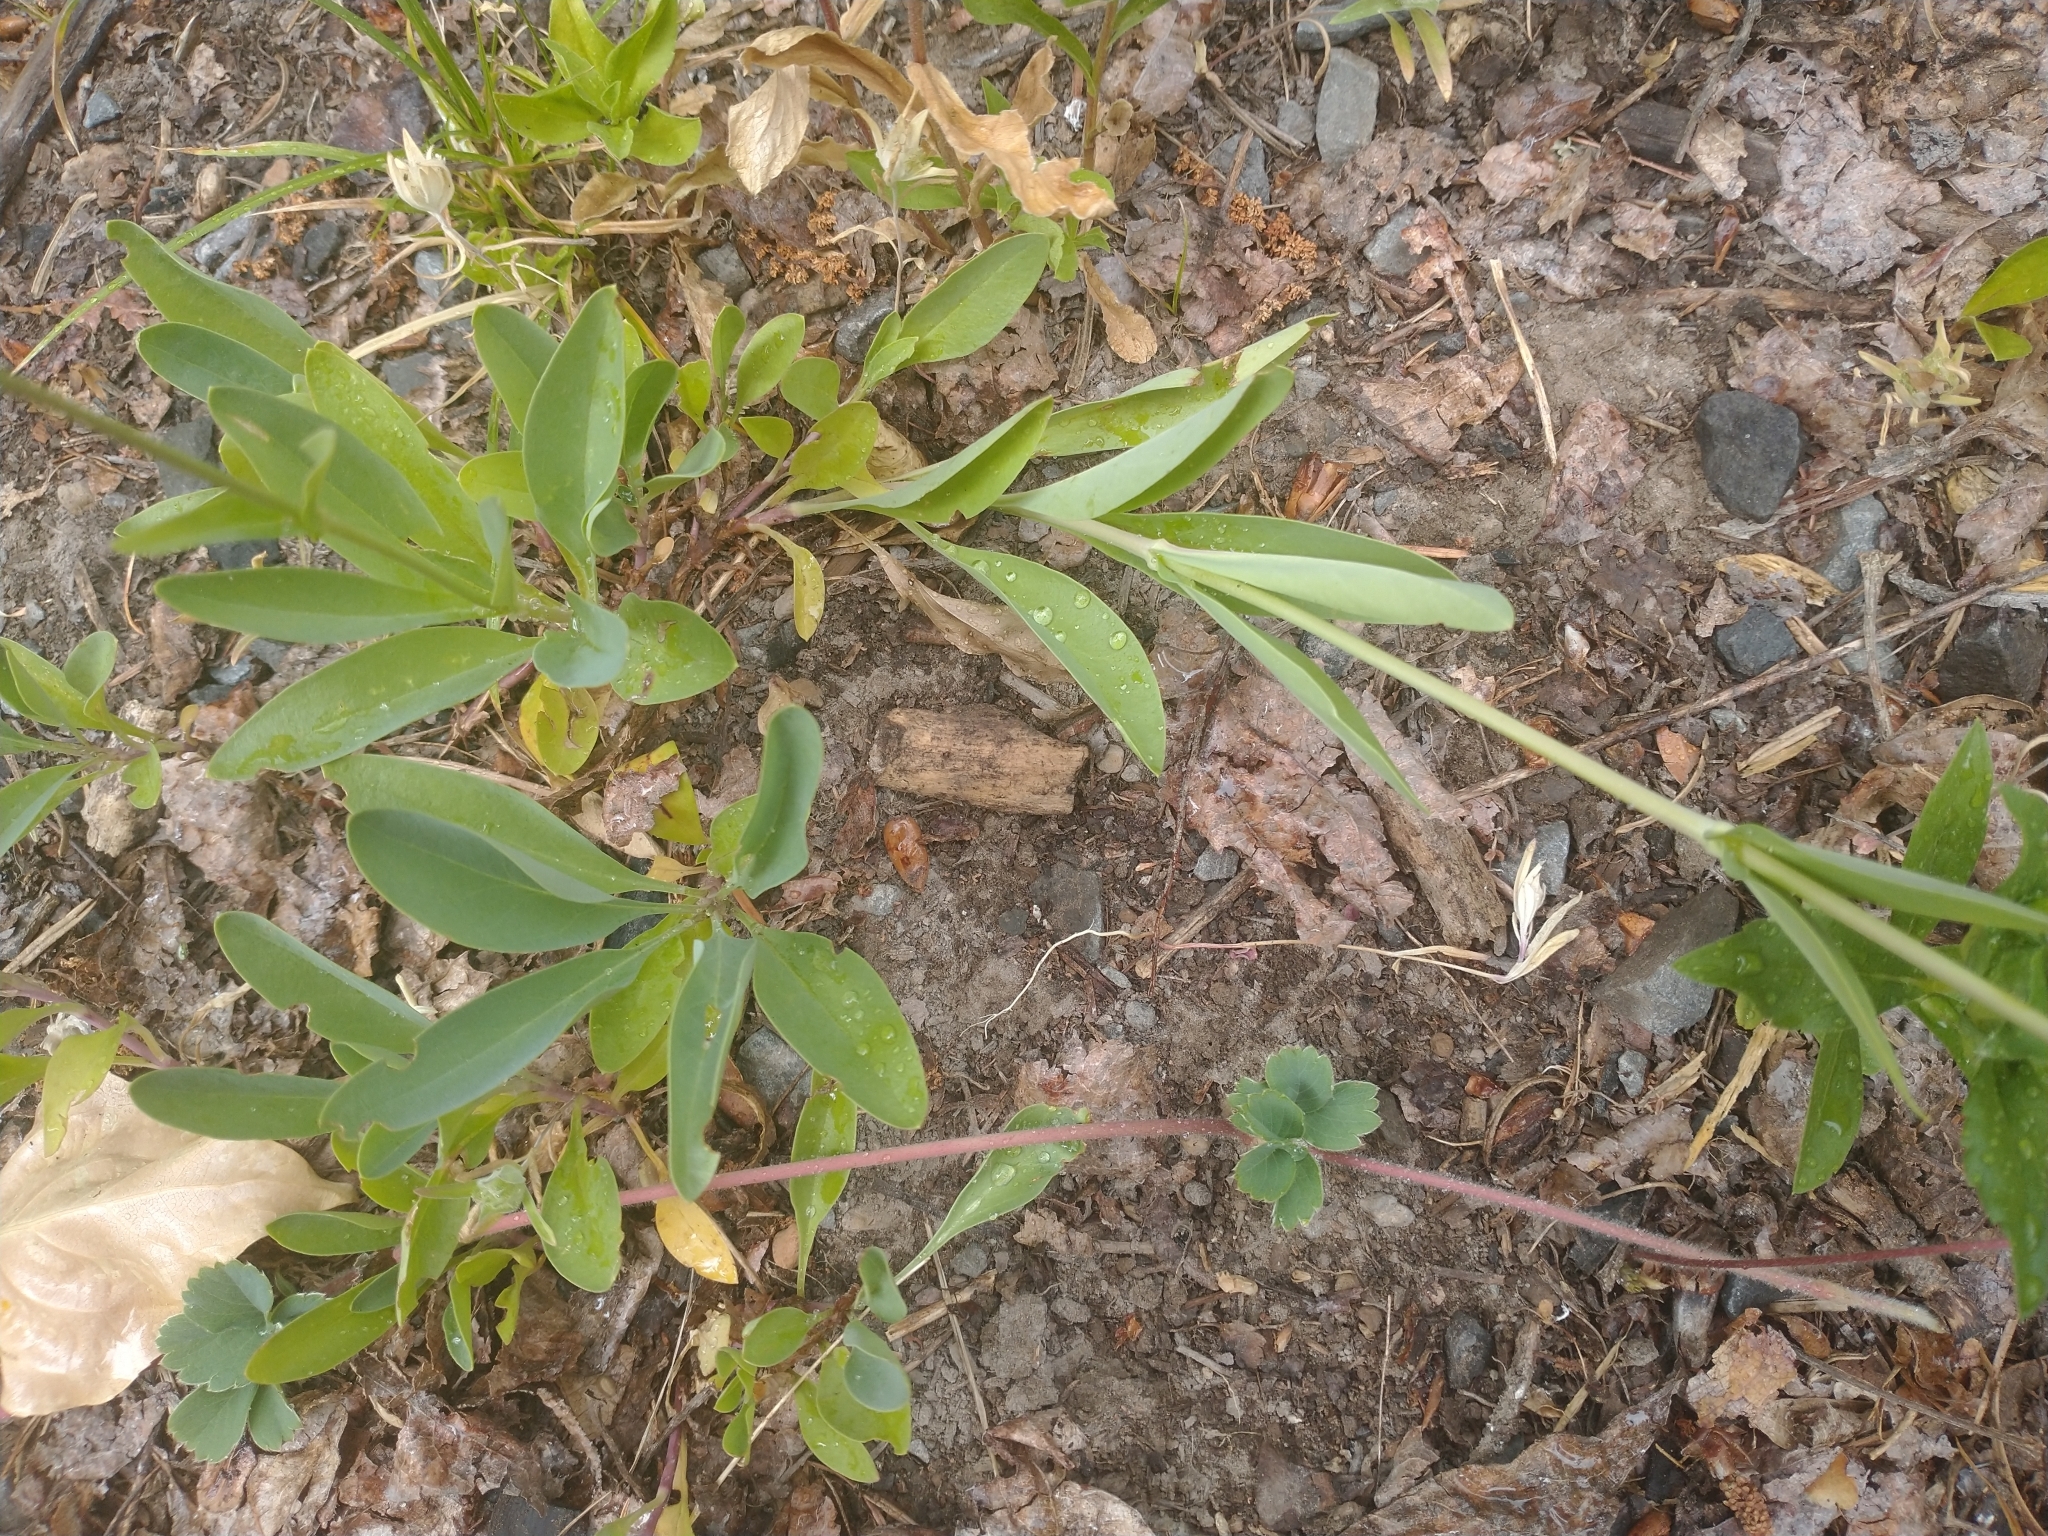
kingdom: Plantae
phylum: Tracheophyta
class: Magnoliopsida
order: Lamiales
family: Plantaginaceae
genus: Penstemon
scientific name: Penstemon euglaucus
